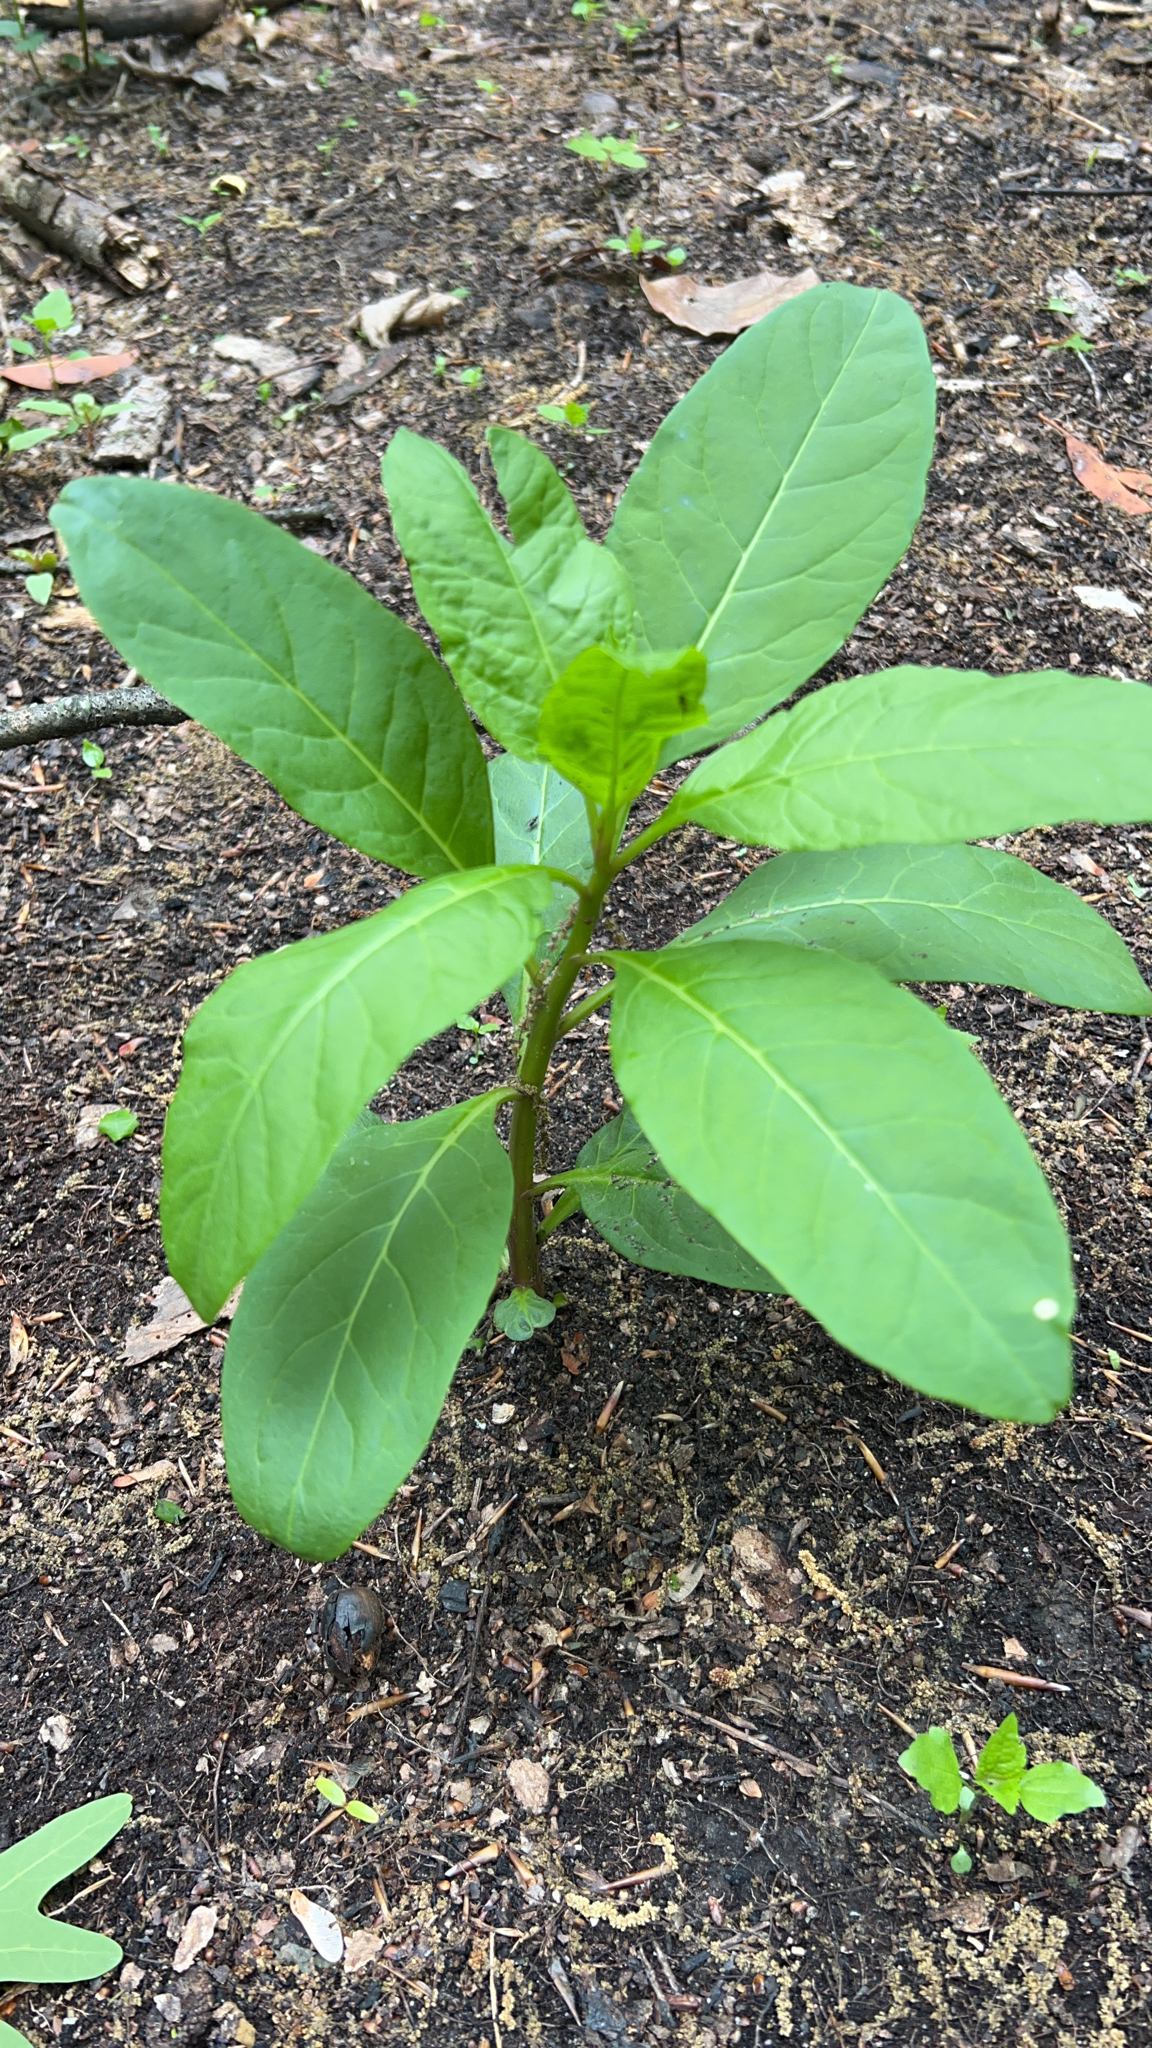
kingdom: Plantae
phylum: Tracheophyta
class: Magnoliopsida
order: Caryophyllales
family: Phytolaccaceae
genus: Phytolacca
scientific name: Phytolacca americana
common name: American pokeweed
